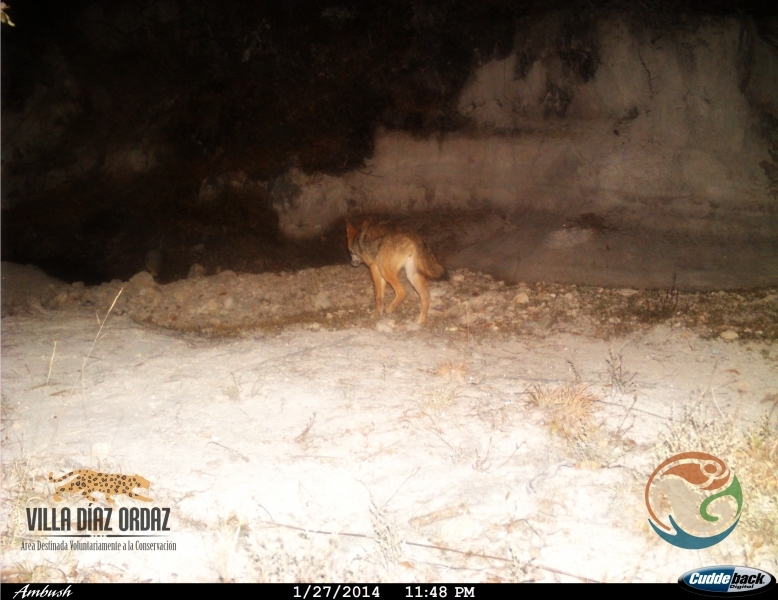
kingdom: Animalia
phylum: Chordata
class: Mammalia
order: Carnivora
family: Canidae
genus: Canis
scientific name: Canis latrans
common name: Coyote
